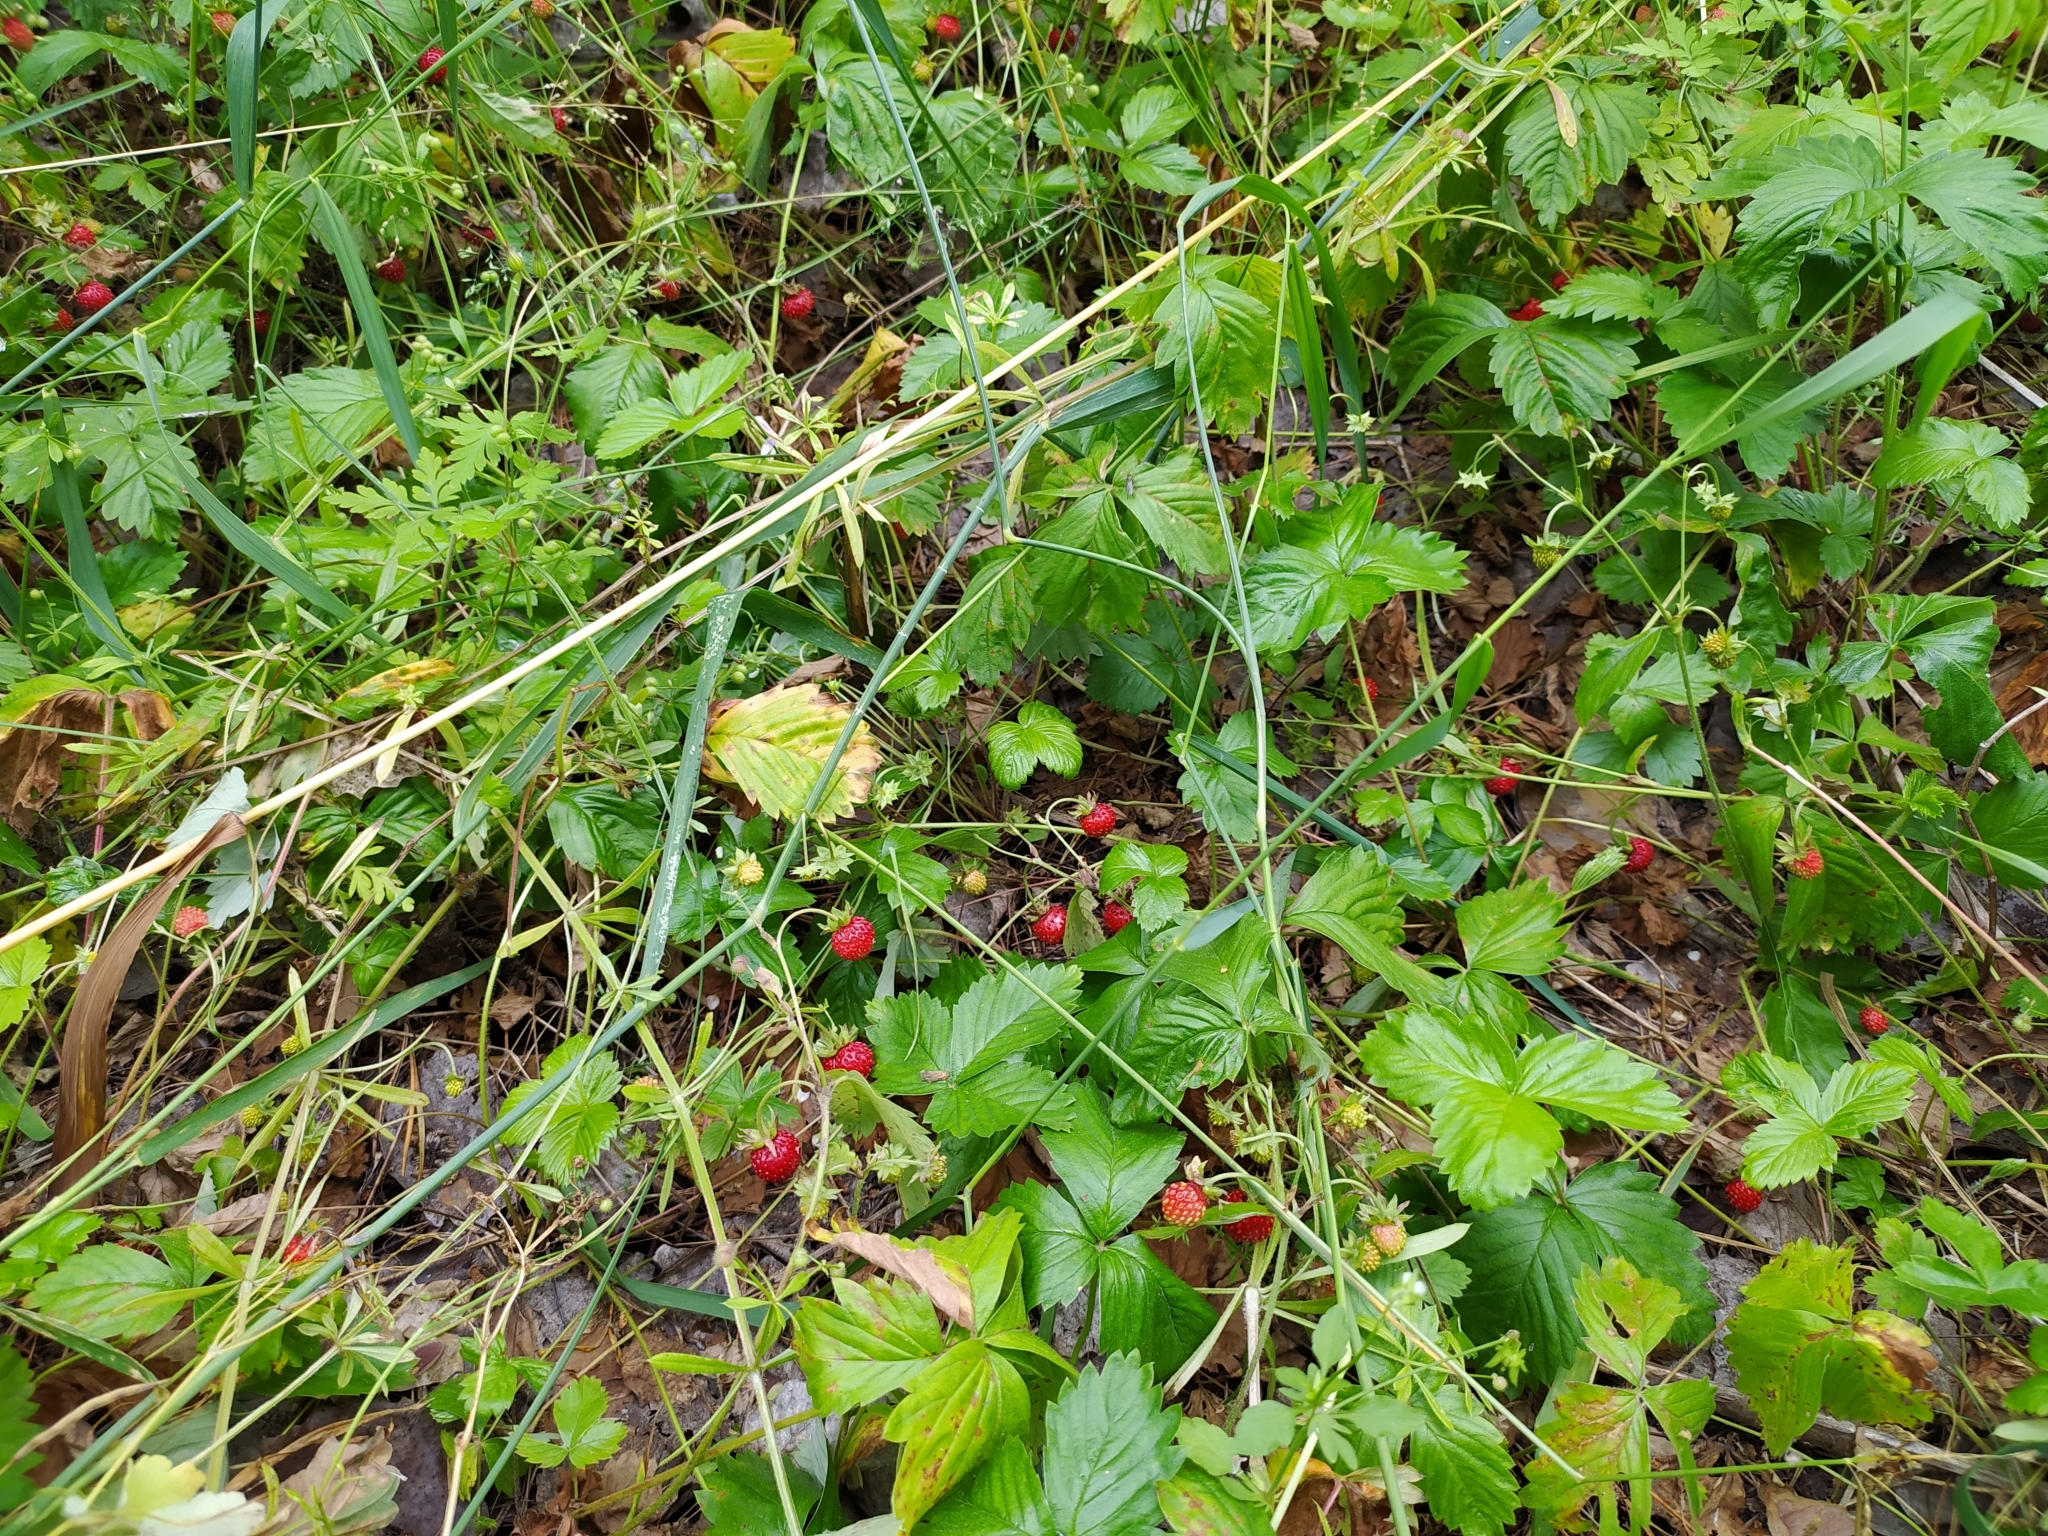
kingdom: Plantae
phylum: Tracheophyta
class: Magnoliopsida
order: Rosales
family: Rosaceae
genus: Fragaria
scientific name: Fragaria vesca
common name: Wild strawberry
